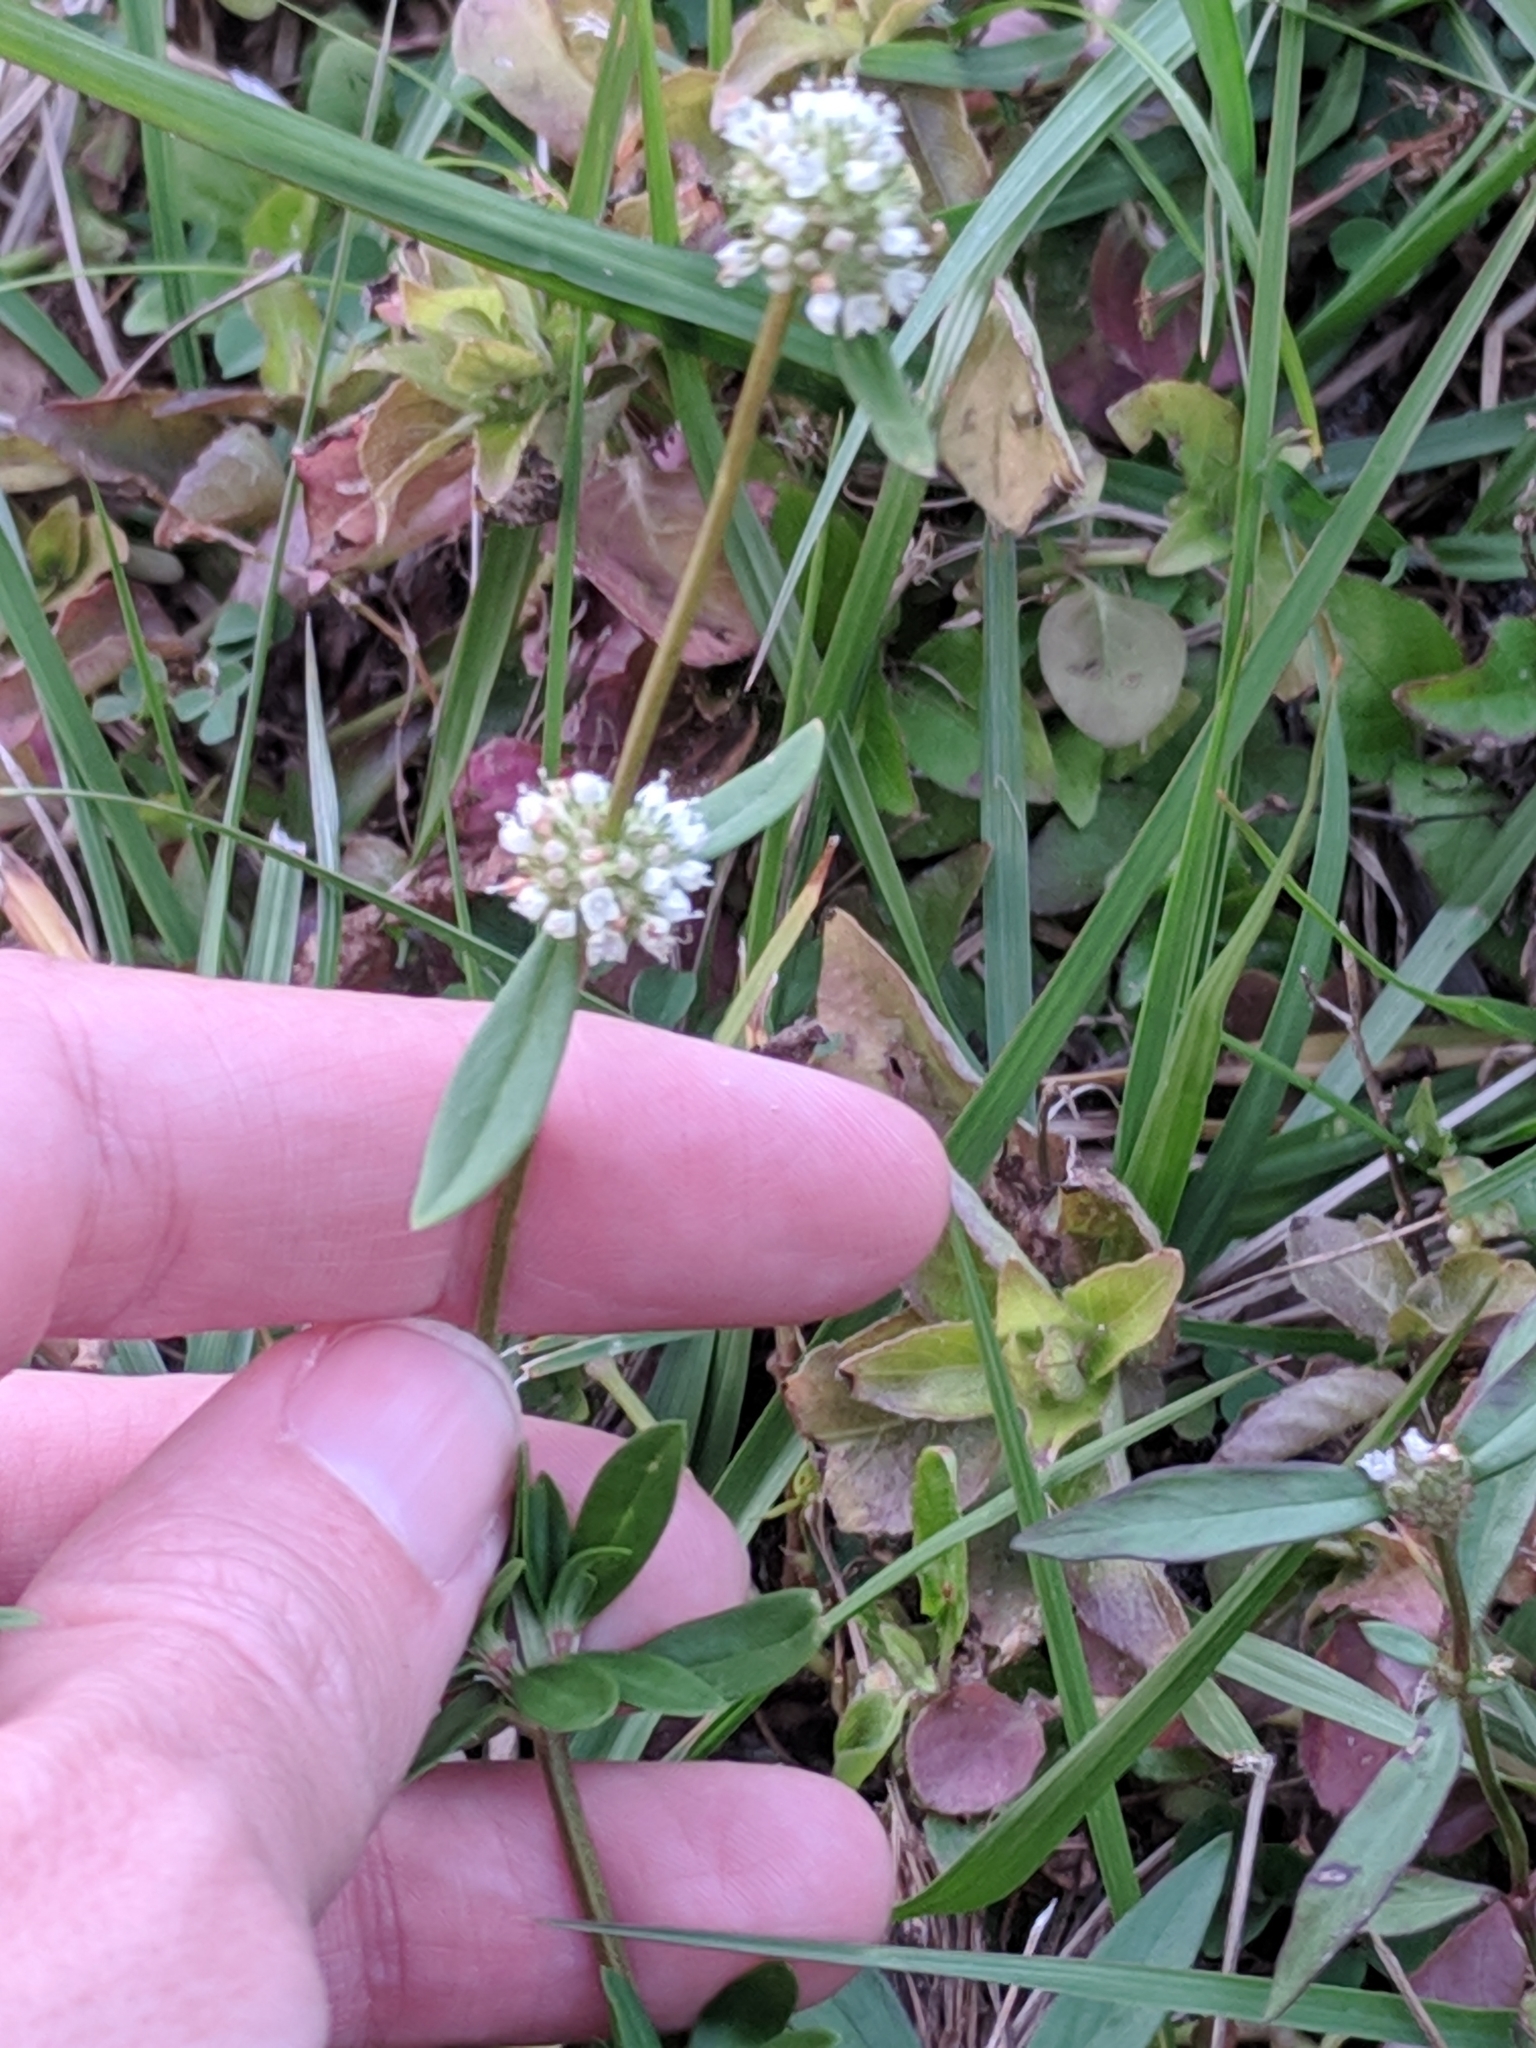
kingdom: Plantae
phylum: Tracheophyta
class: Magnoliopsida
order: Gentianales
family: Rubiaceae
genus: Spermacoce
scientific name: Spermacoce verticillata
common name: Shrubby false buttonweed
